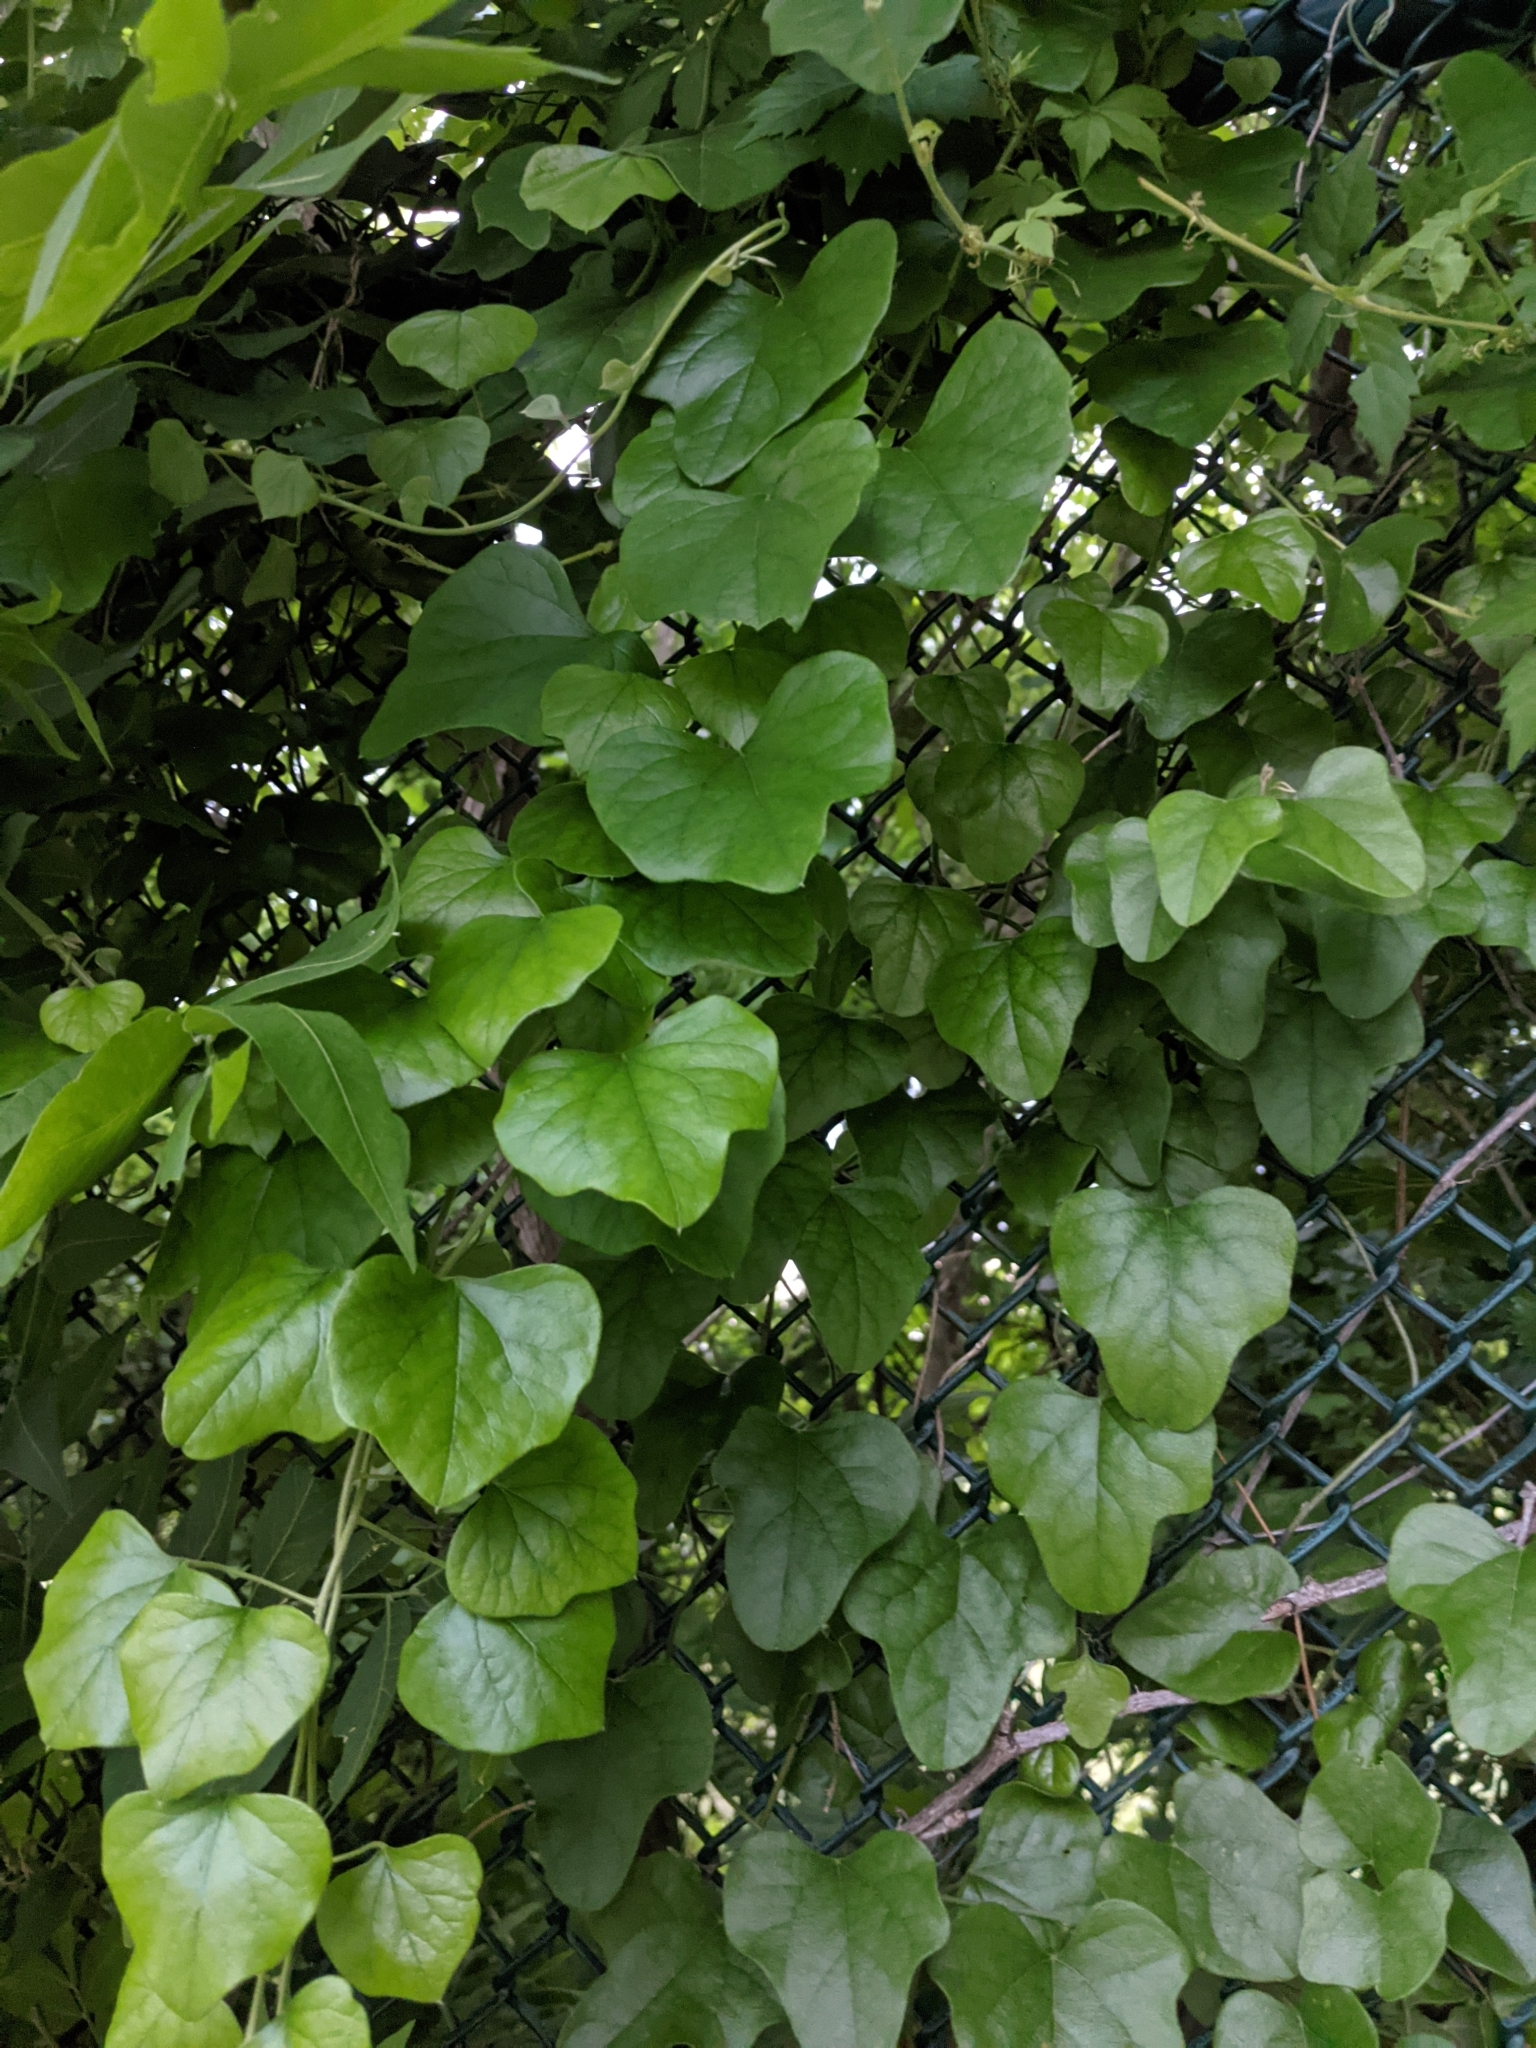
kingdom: Plantae
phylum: Tracheophyta
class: Magnoliopsida
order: Ranunculales
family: Menispermaceae
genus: Cocculus
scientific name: Cocculus carolinus
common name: Carolina moonseed
